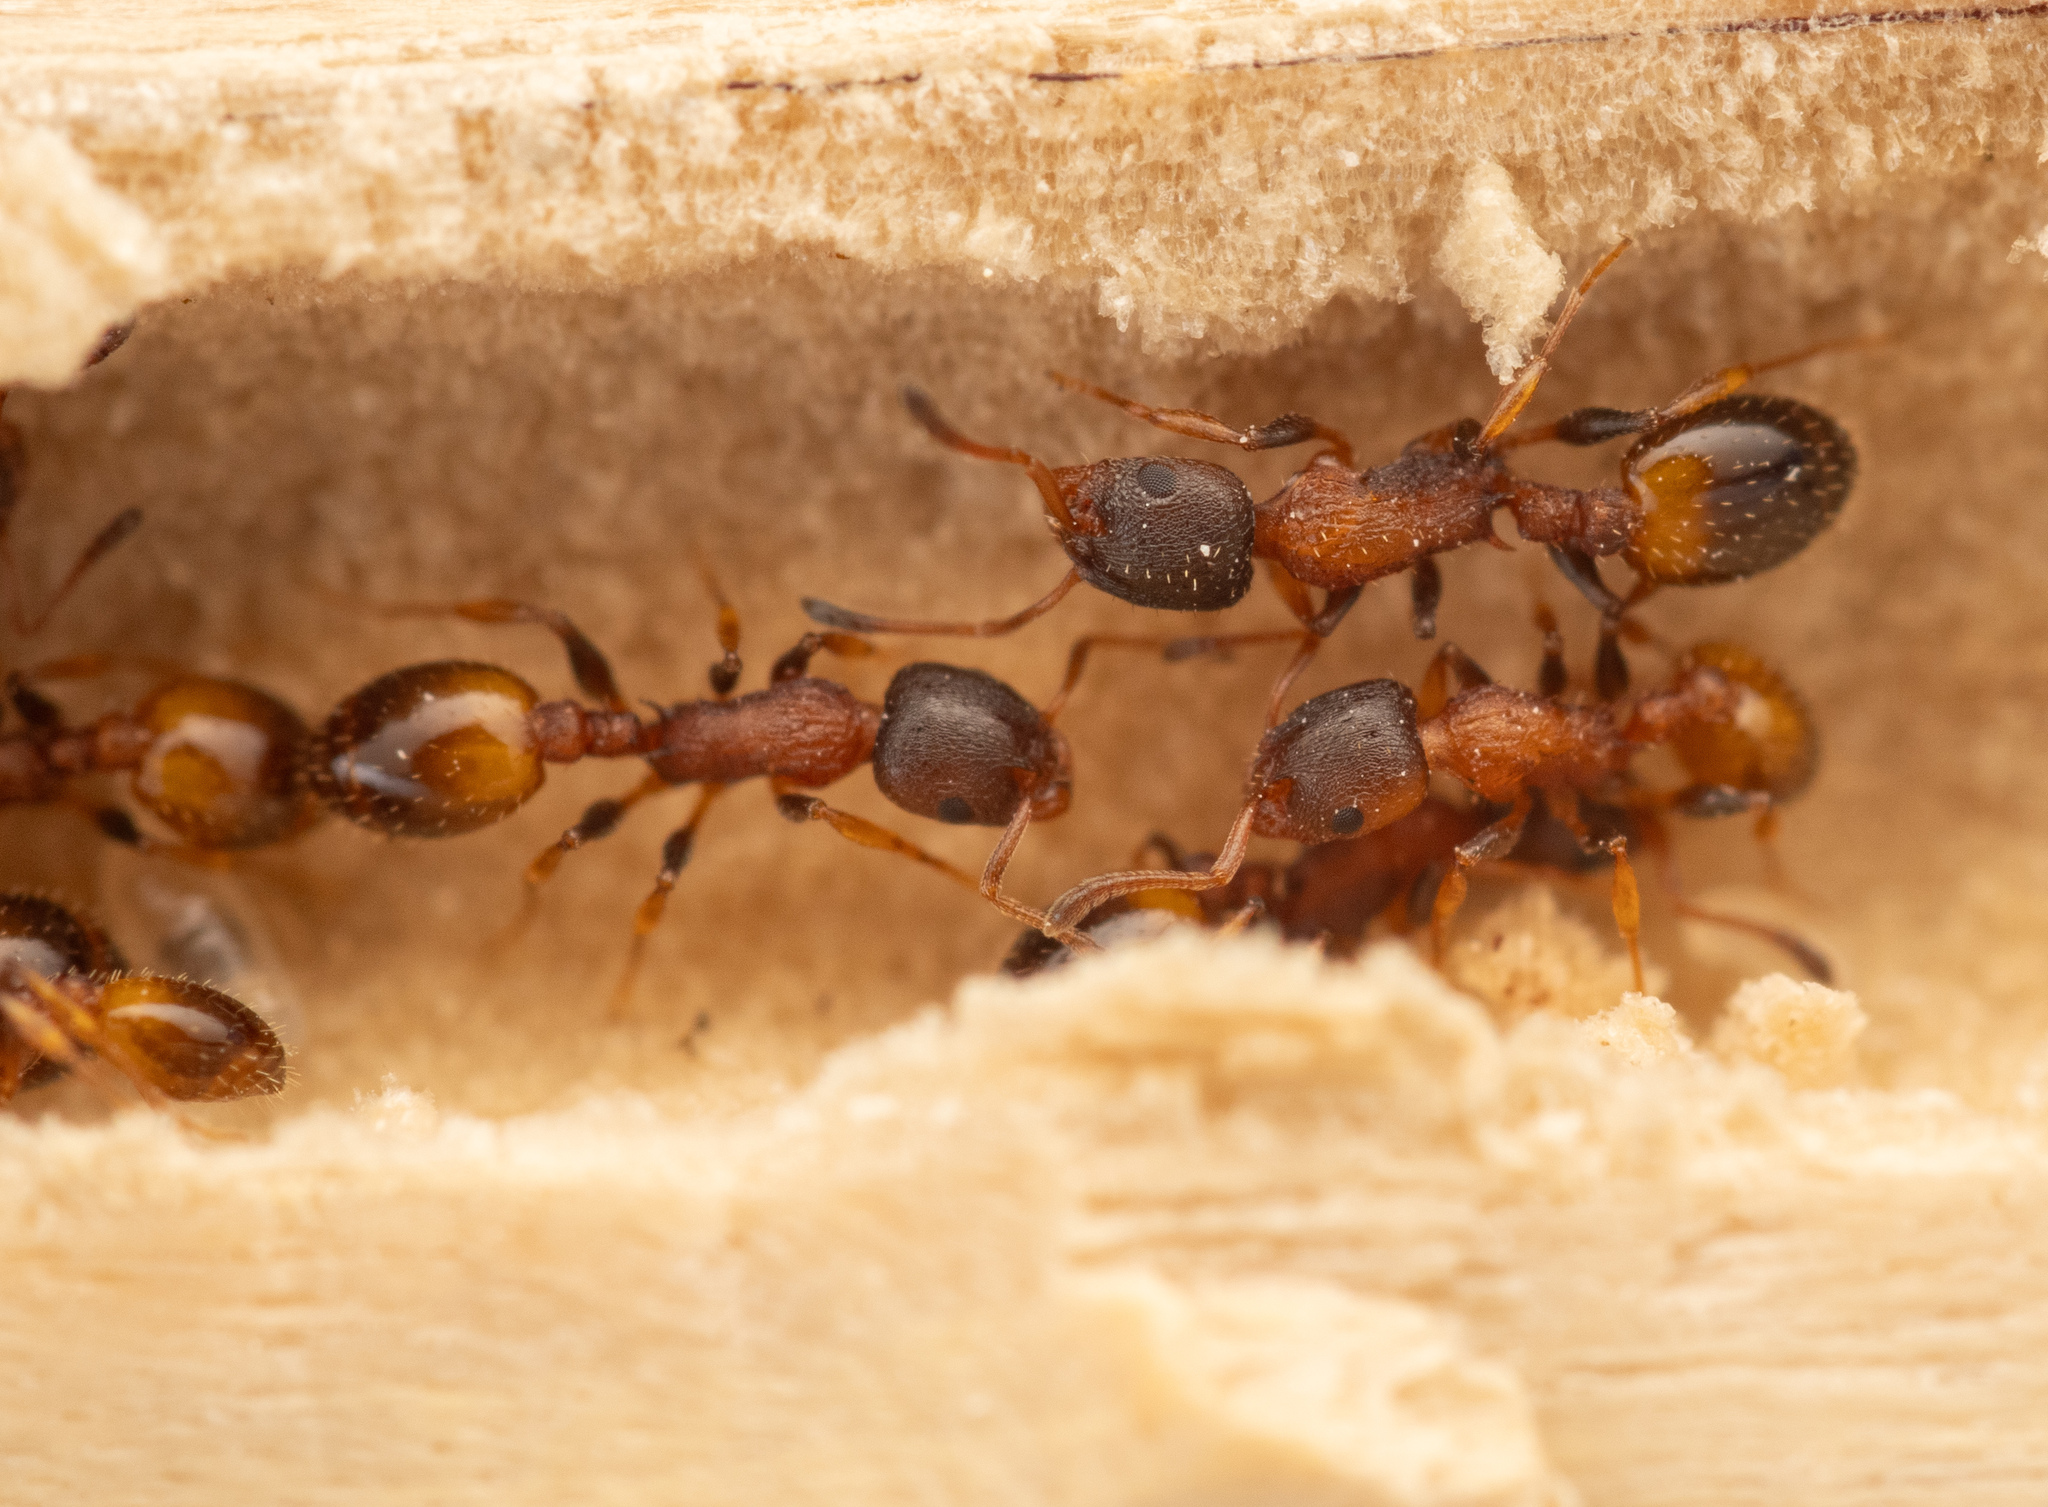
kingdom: Animalia
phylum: Arthropoda
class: Insecta
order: Hymenoptera
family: Formicidae
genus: Leptothorax
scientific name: Leptothorax affinis
